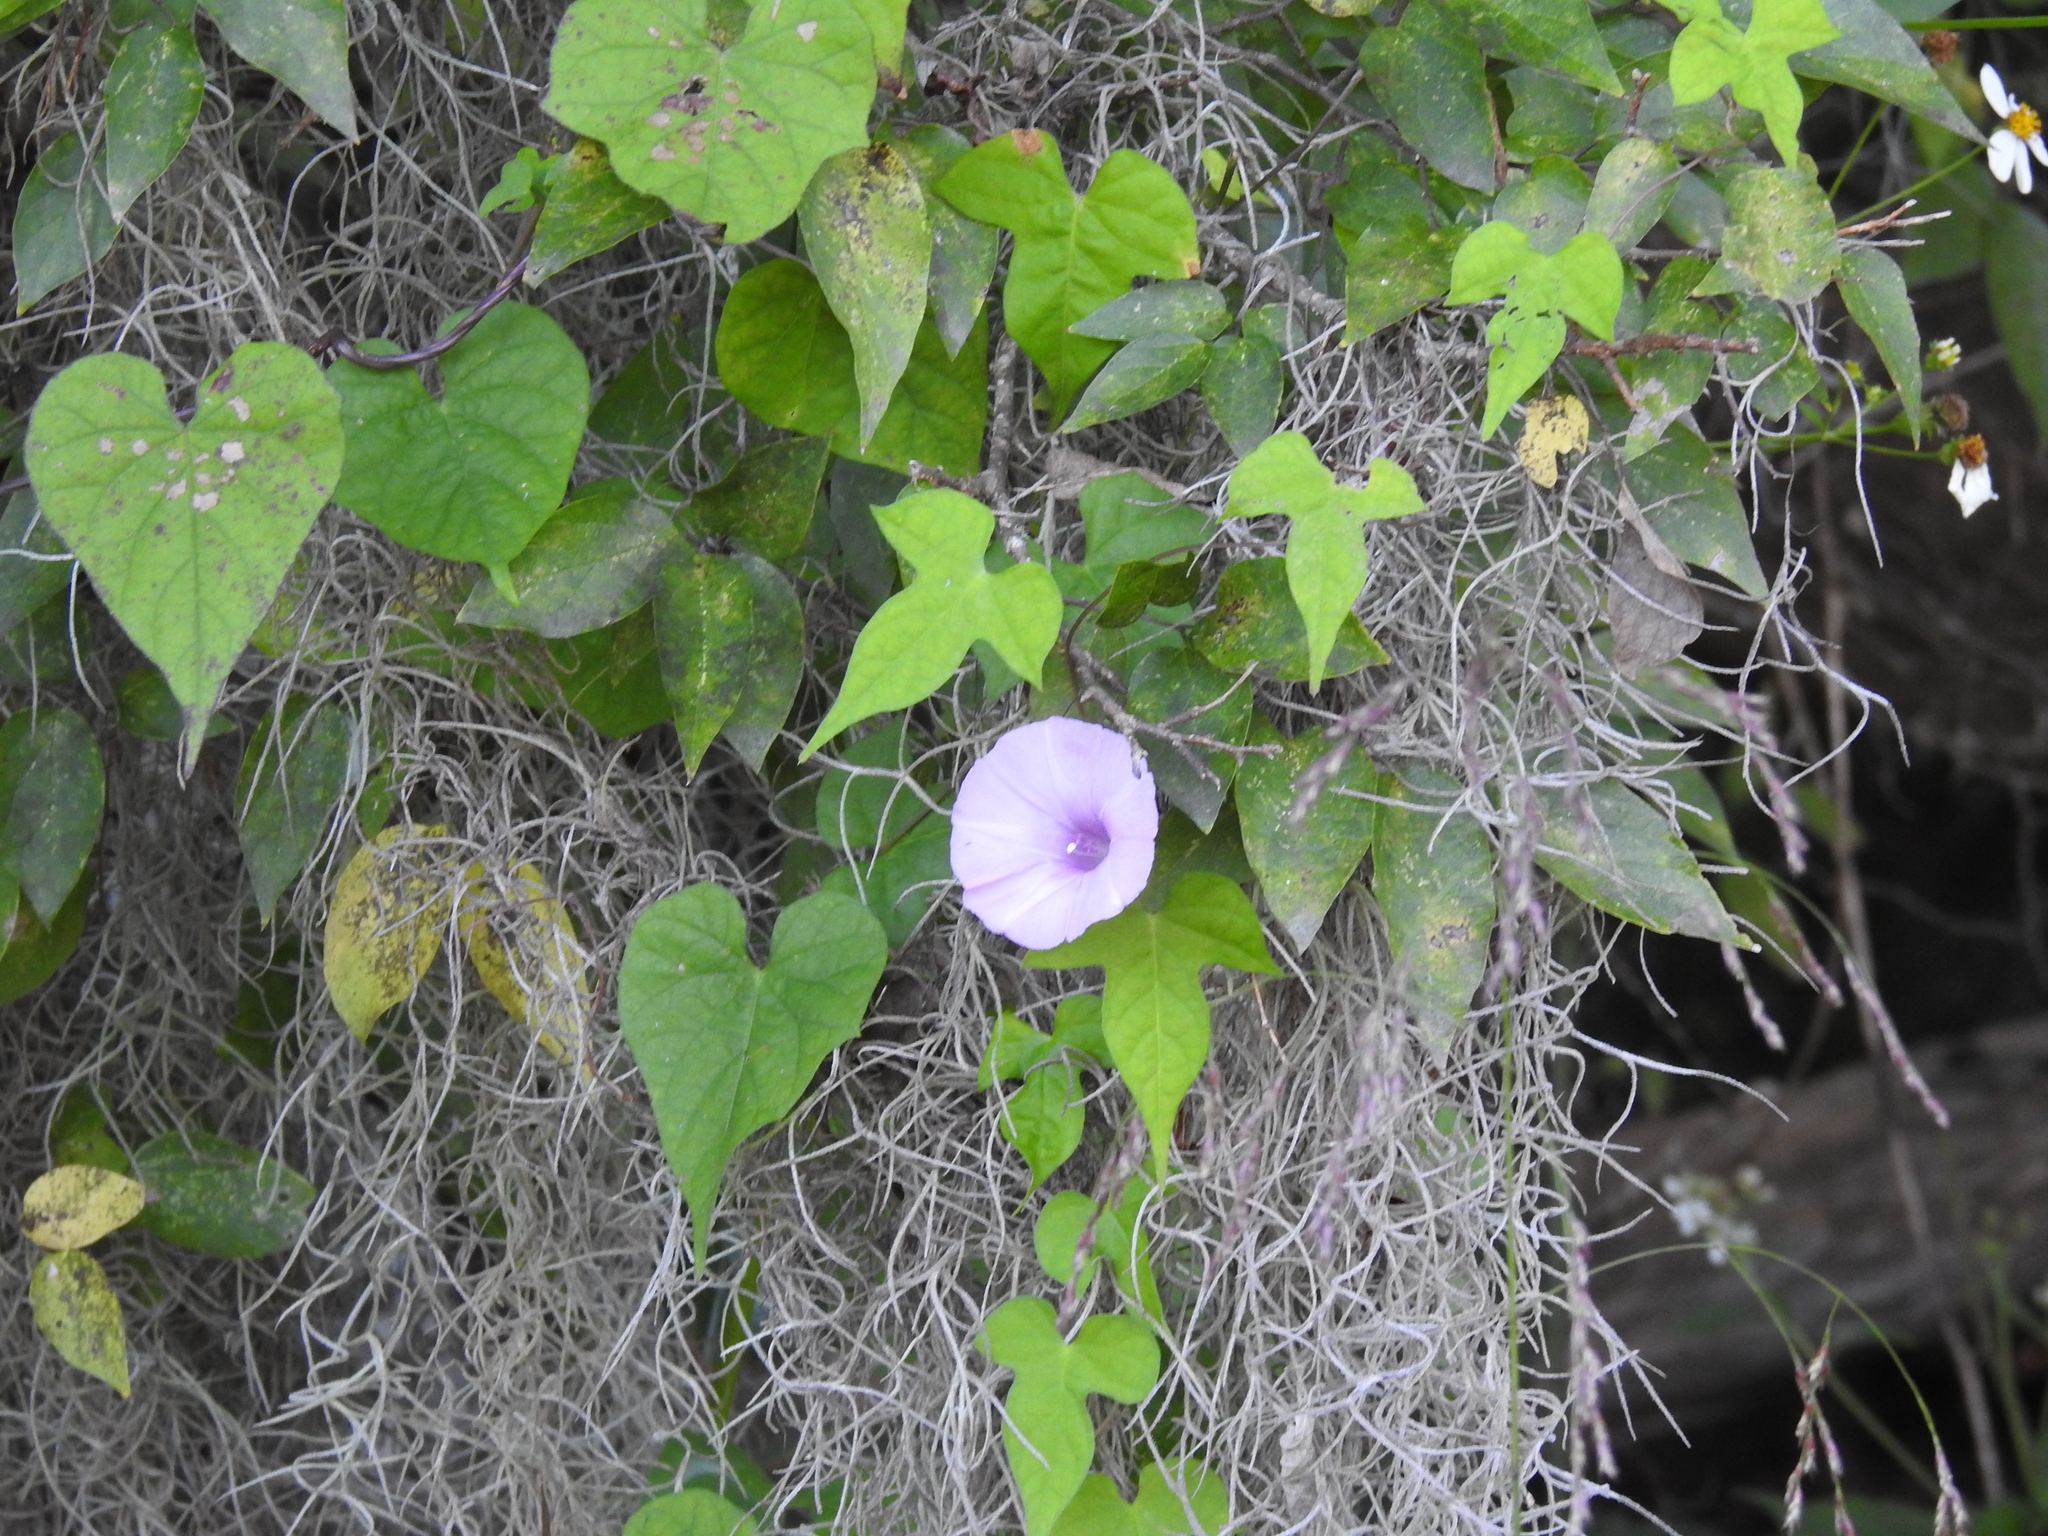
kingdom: Plantae
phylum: Tracheophyta
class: Magnoliopsida
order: Solanales
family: Convolvulaceae
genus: Ipomoea
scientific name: Ipomoea cordatotriloba
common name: Cotton morning glory
